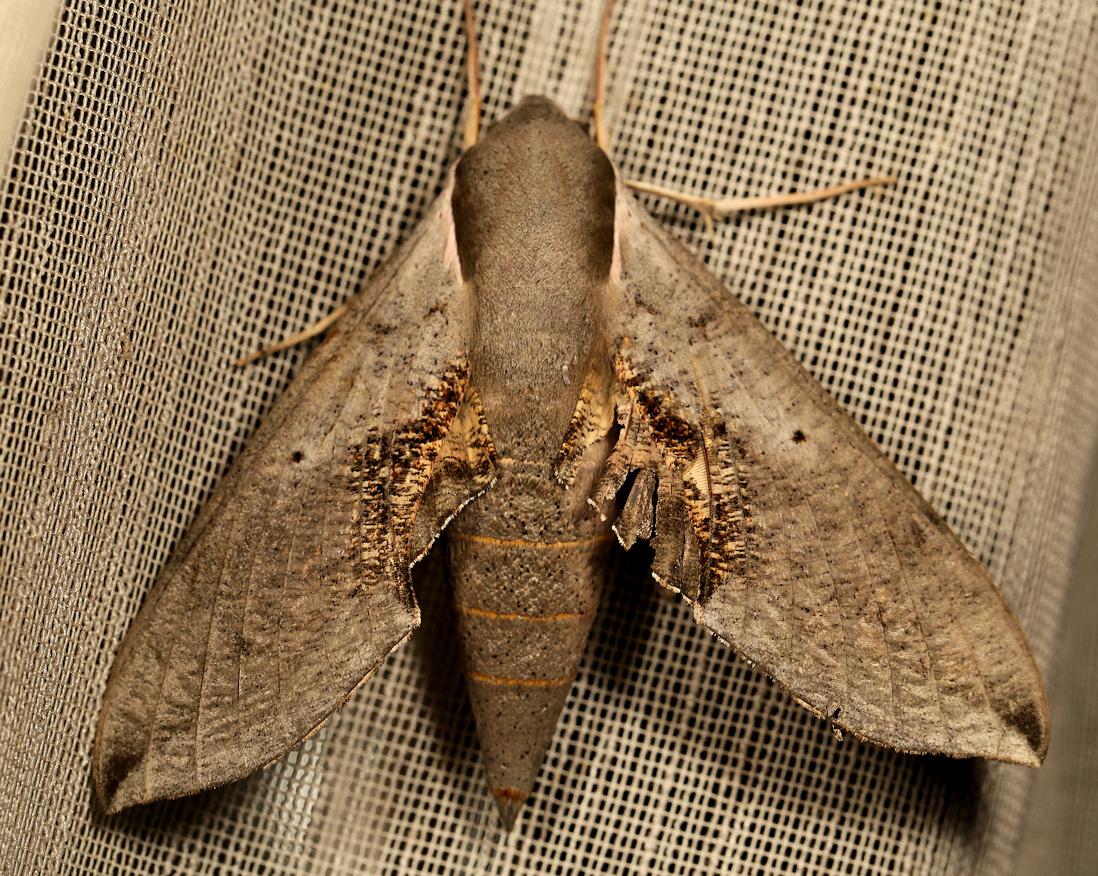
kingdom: Animalia
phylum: Arthropoda
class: Insecta
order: Lepidoptera
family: Sphingidae
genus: Hippotion
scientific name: Hippotion rosae
